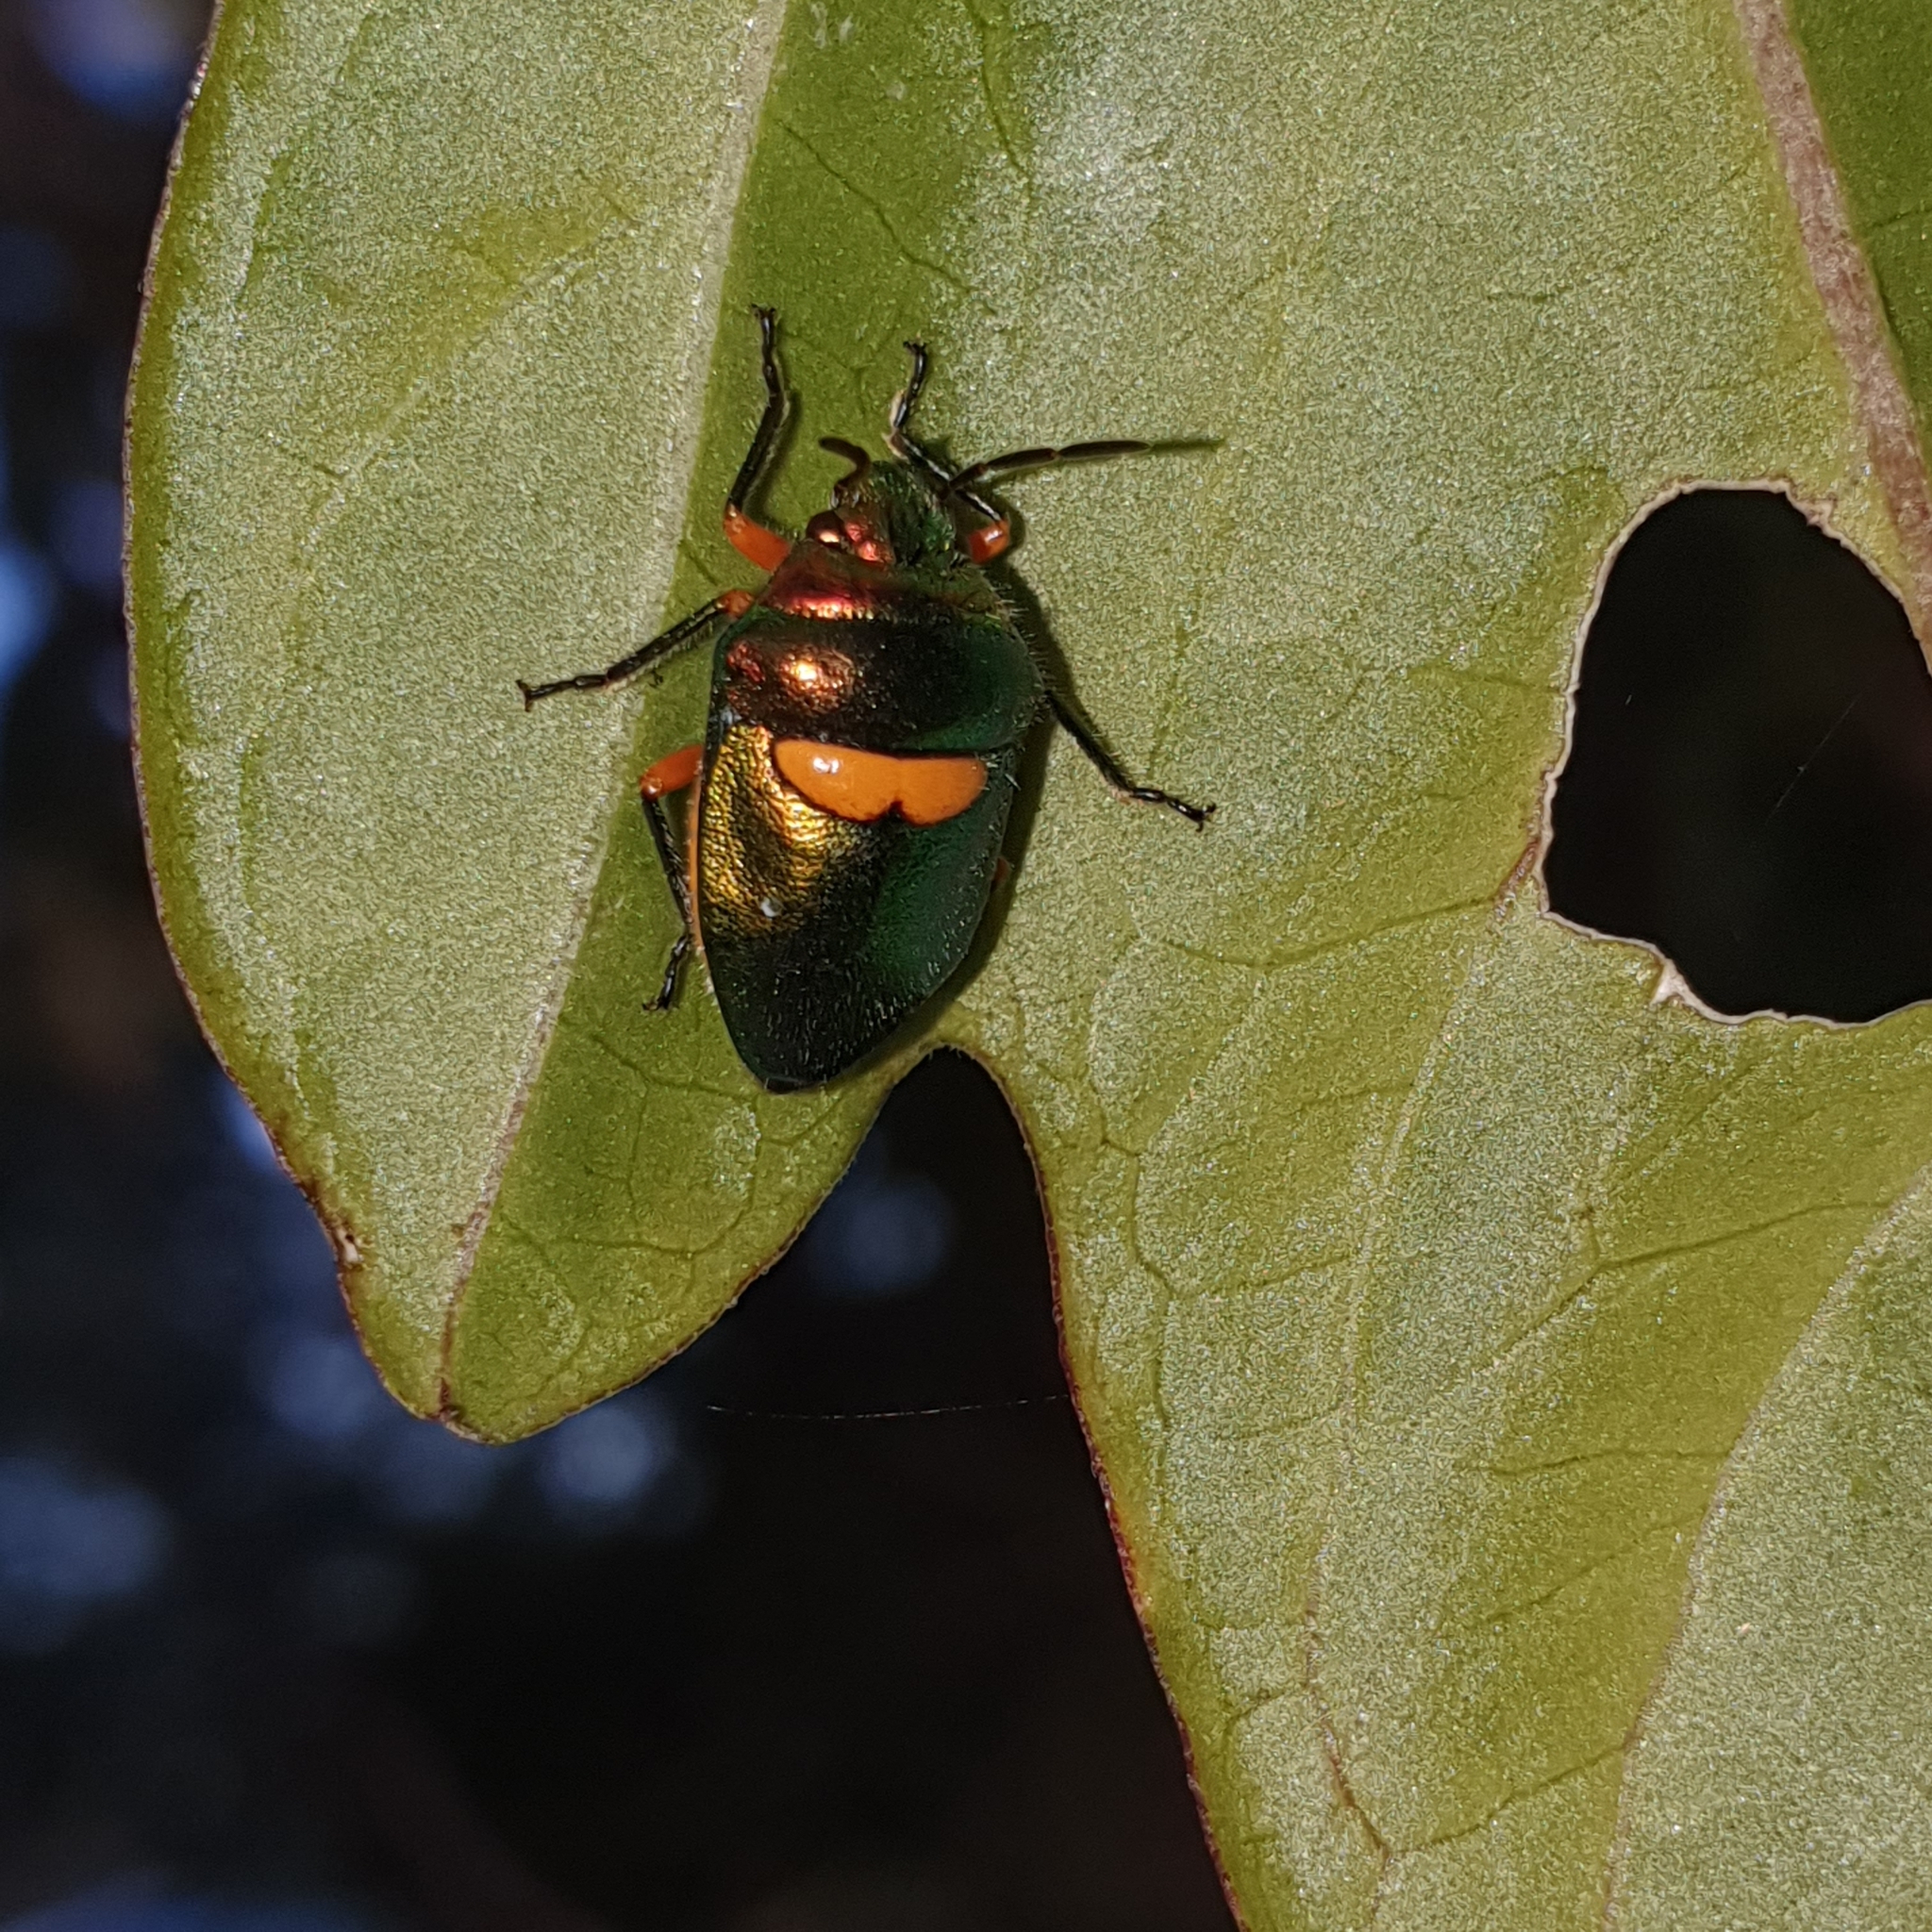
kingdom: Animalia
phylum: Arthropoda
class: Insecta
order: Hemiptera
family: Scutelleridae
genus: Lampromicra
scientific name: Lampromicra senator
